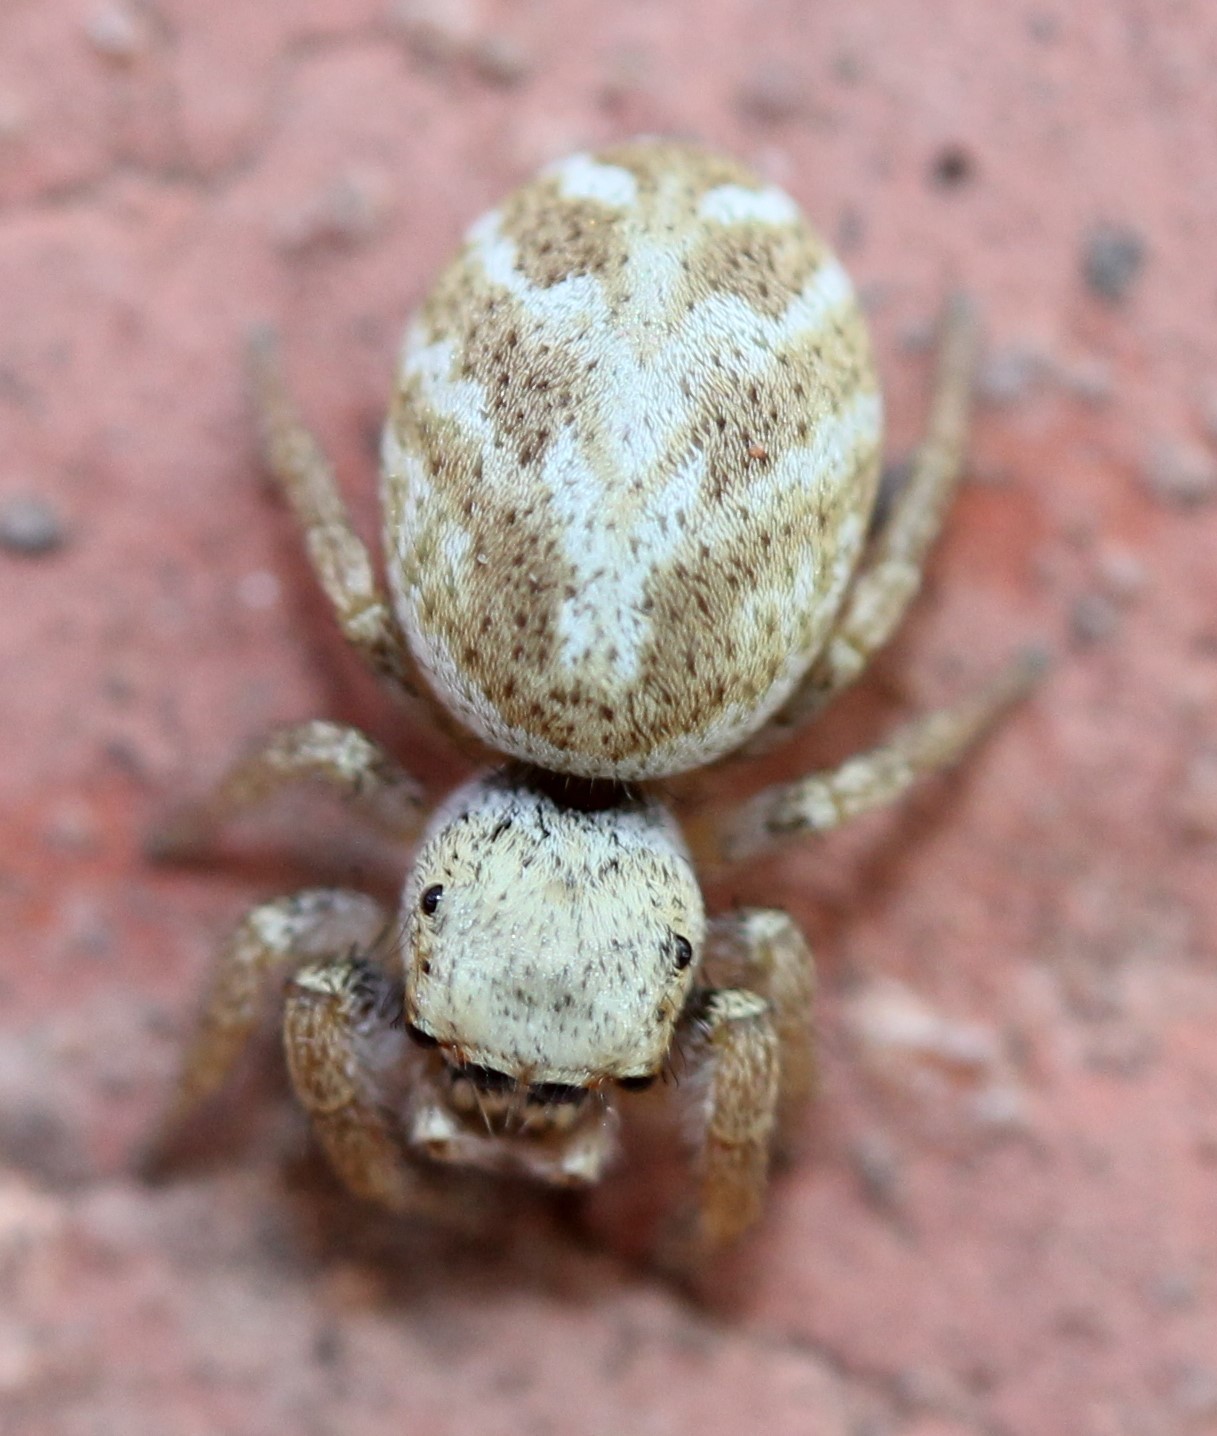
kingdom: Animalia
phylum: Arthropoda
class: Arachnida
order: Araneae
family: Salticidae
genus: Metaphidippus
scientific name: Metaphidippus chera
